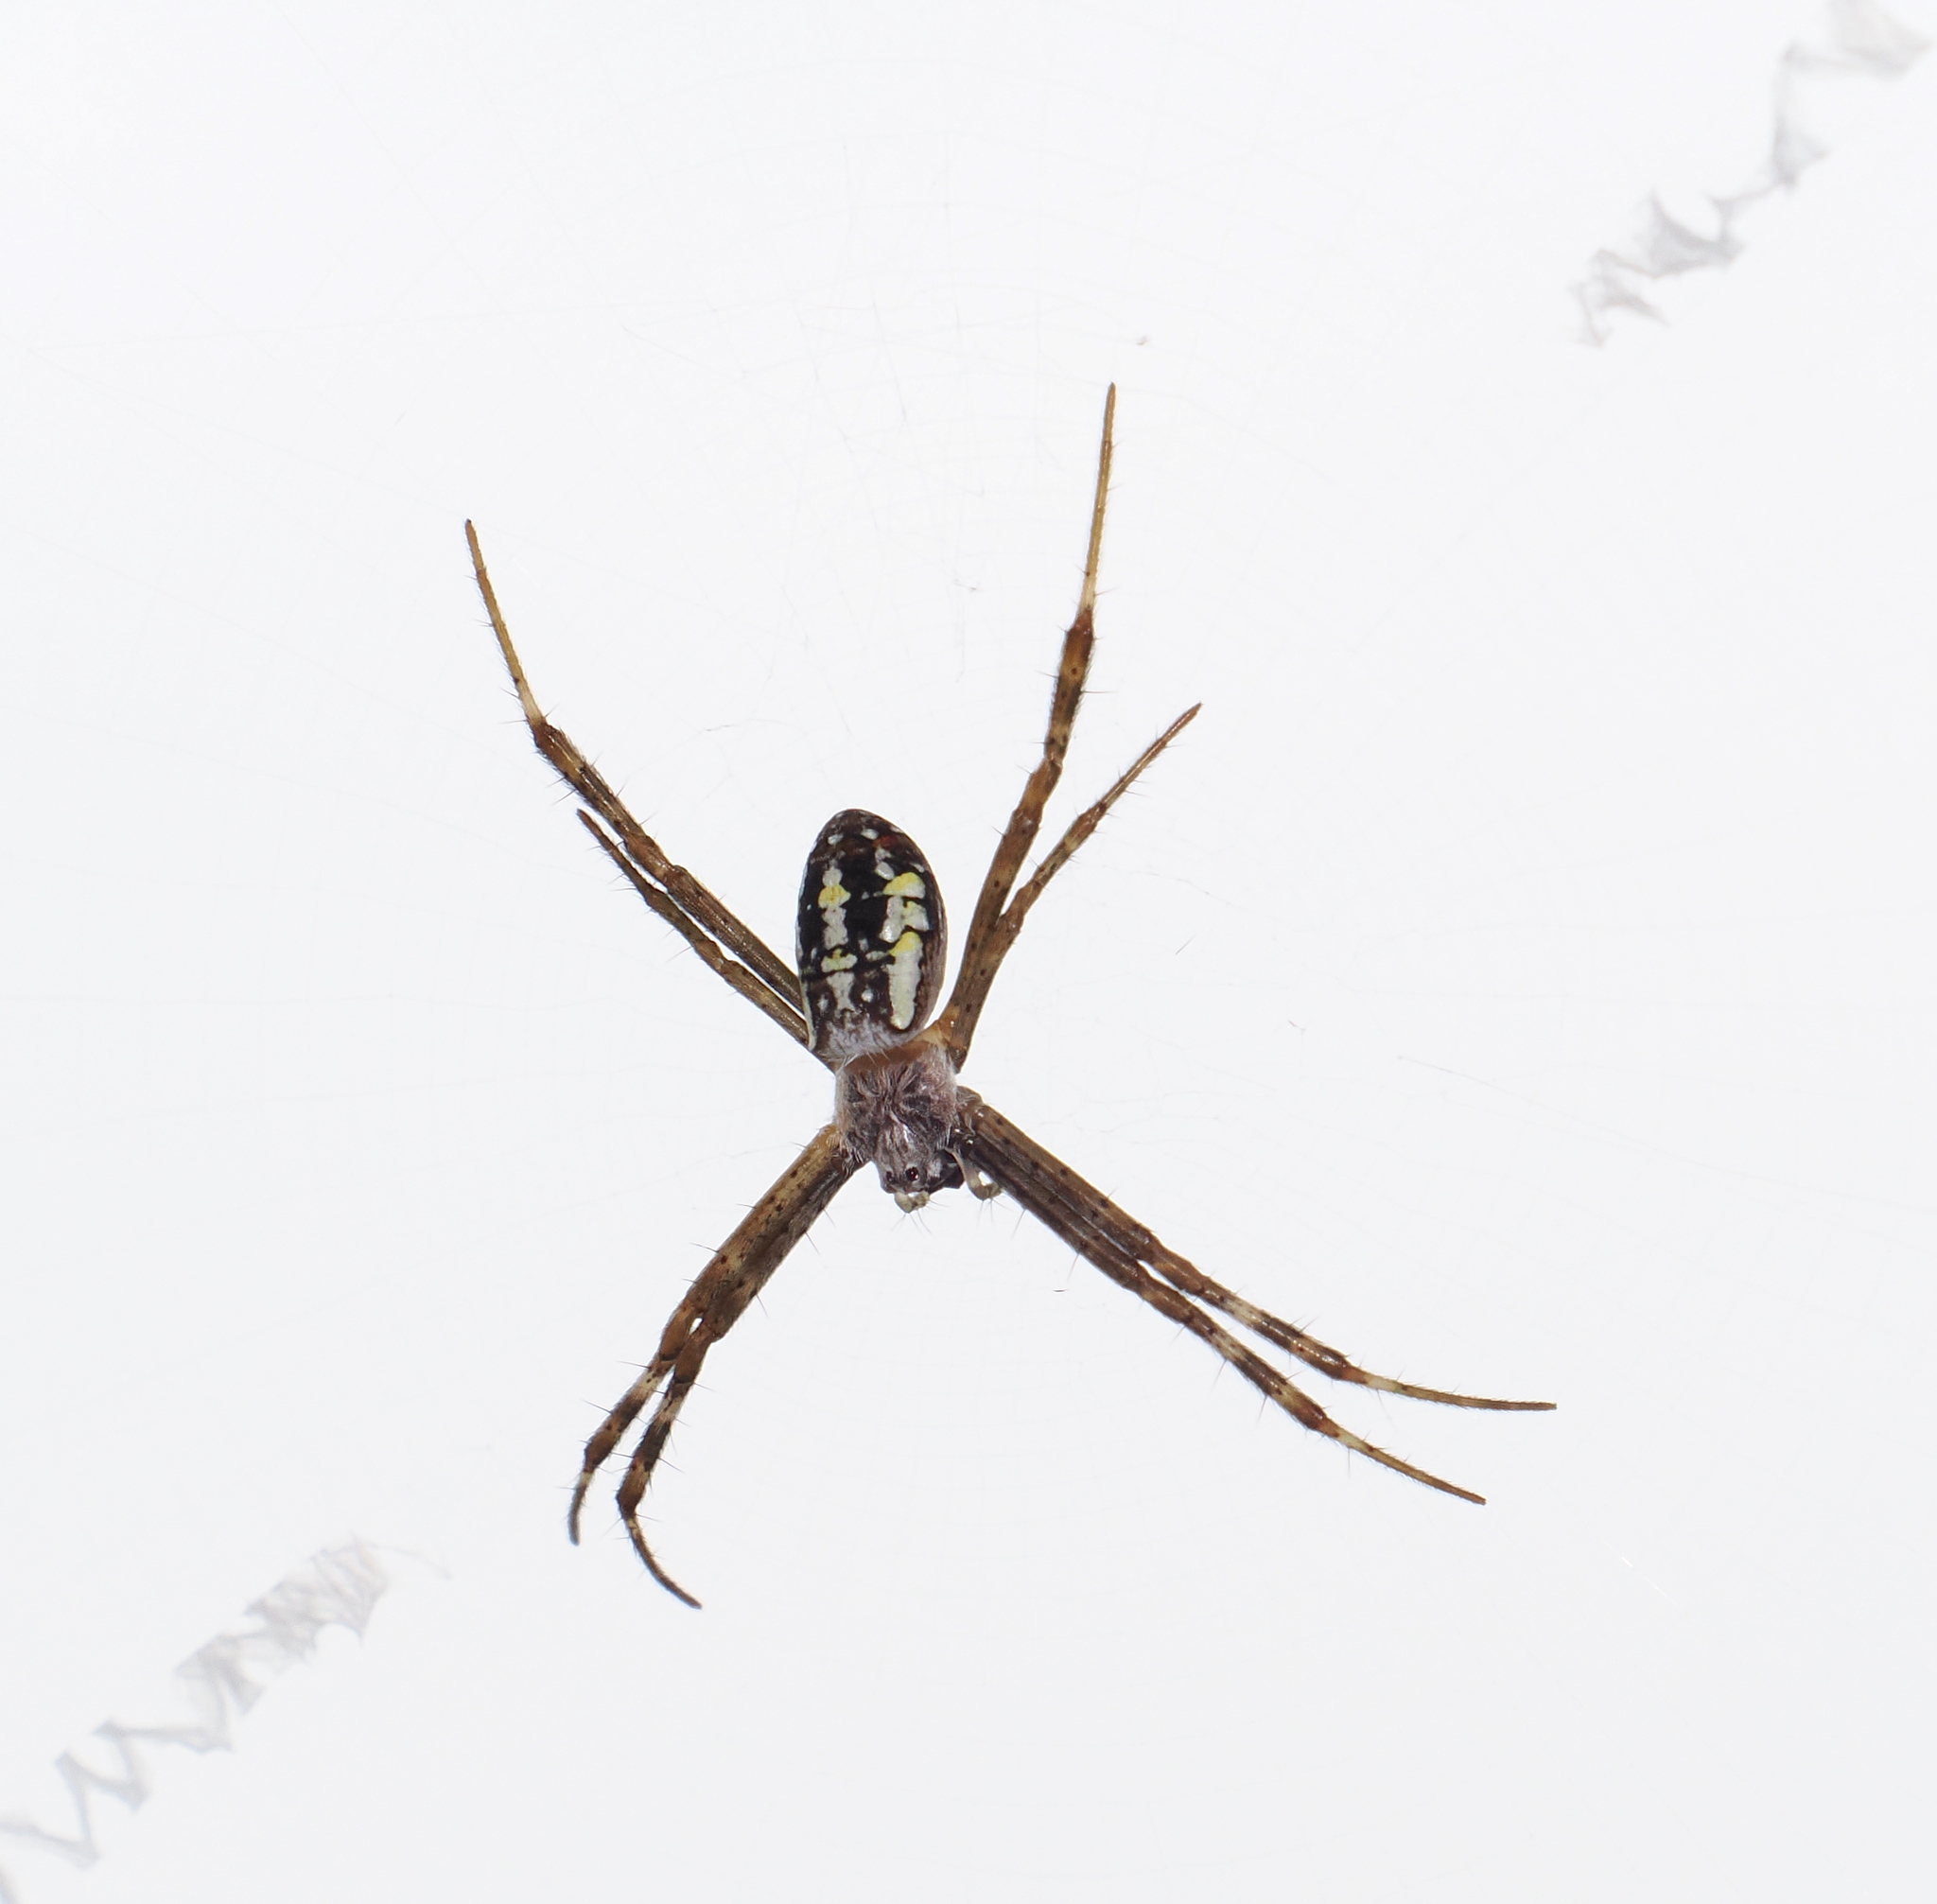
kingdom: Animalia
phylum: Arthropoda
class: Arachnida
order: Araneae
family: Araneidae
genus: Argiope
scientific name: Argiope dang
